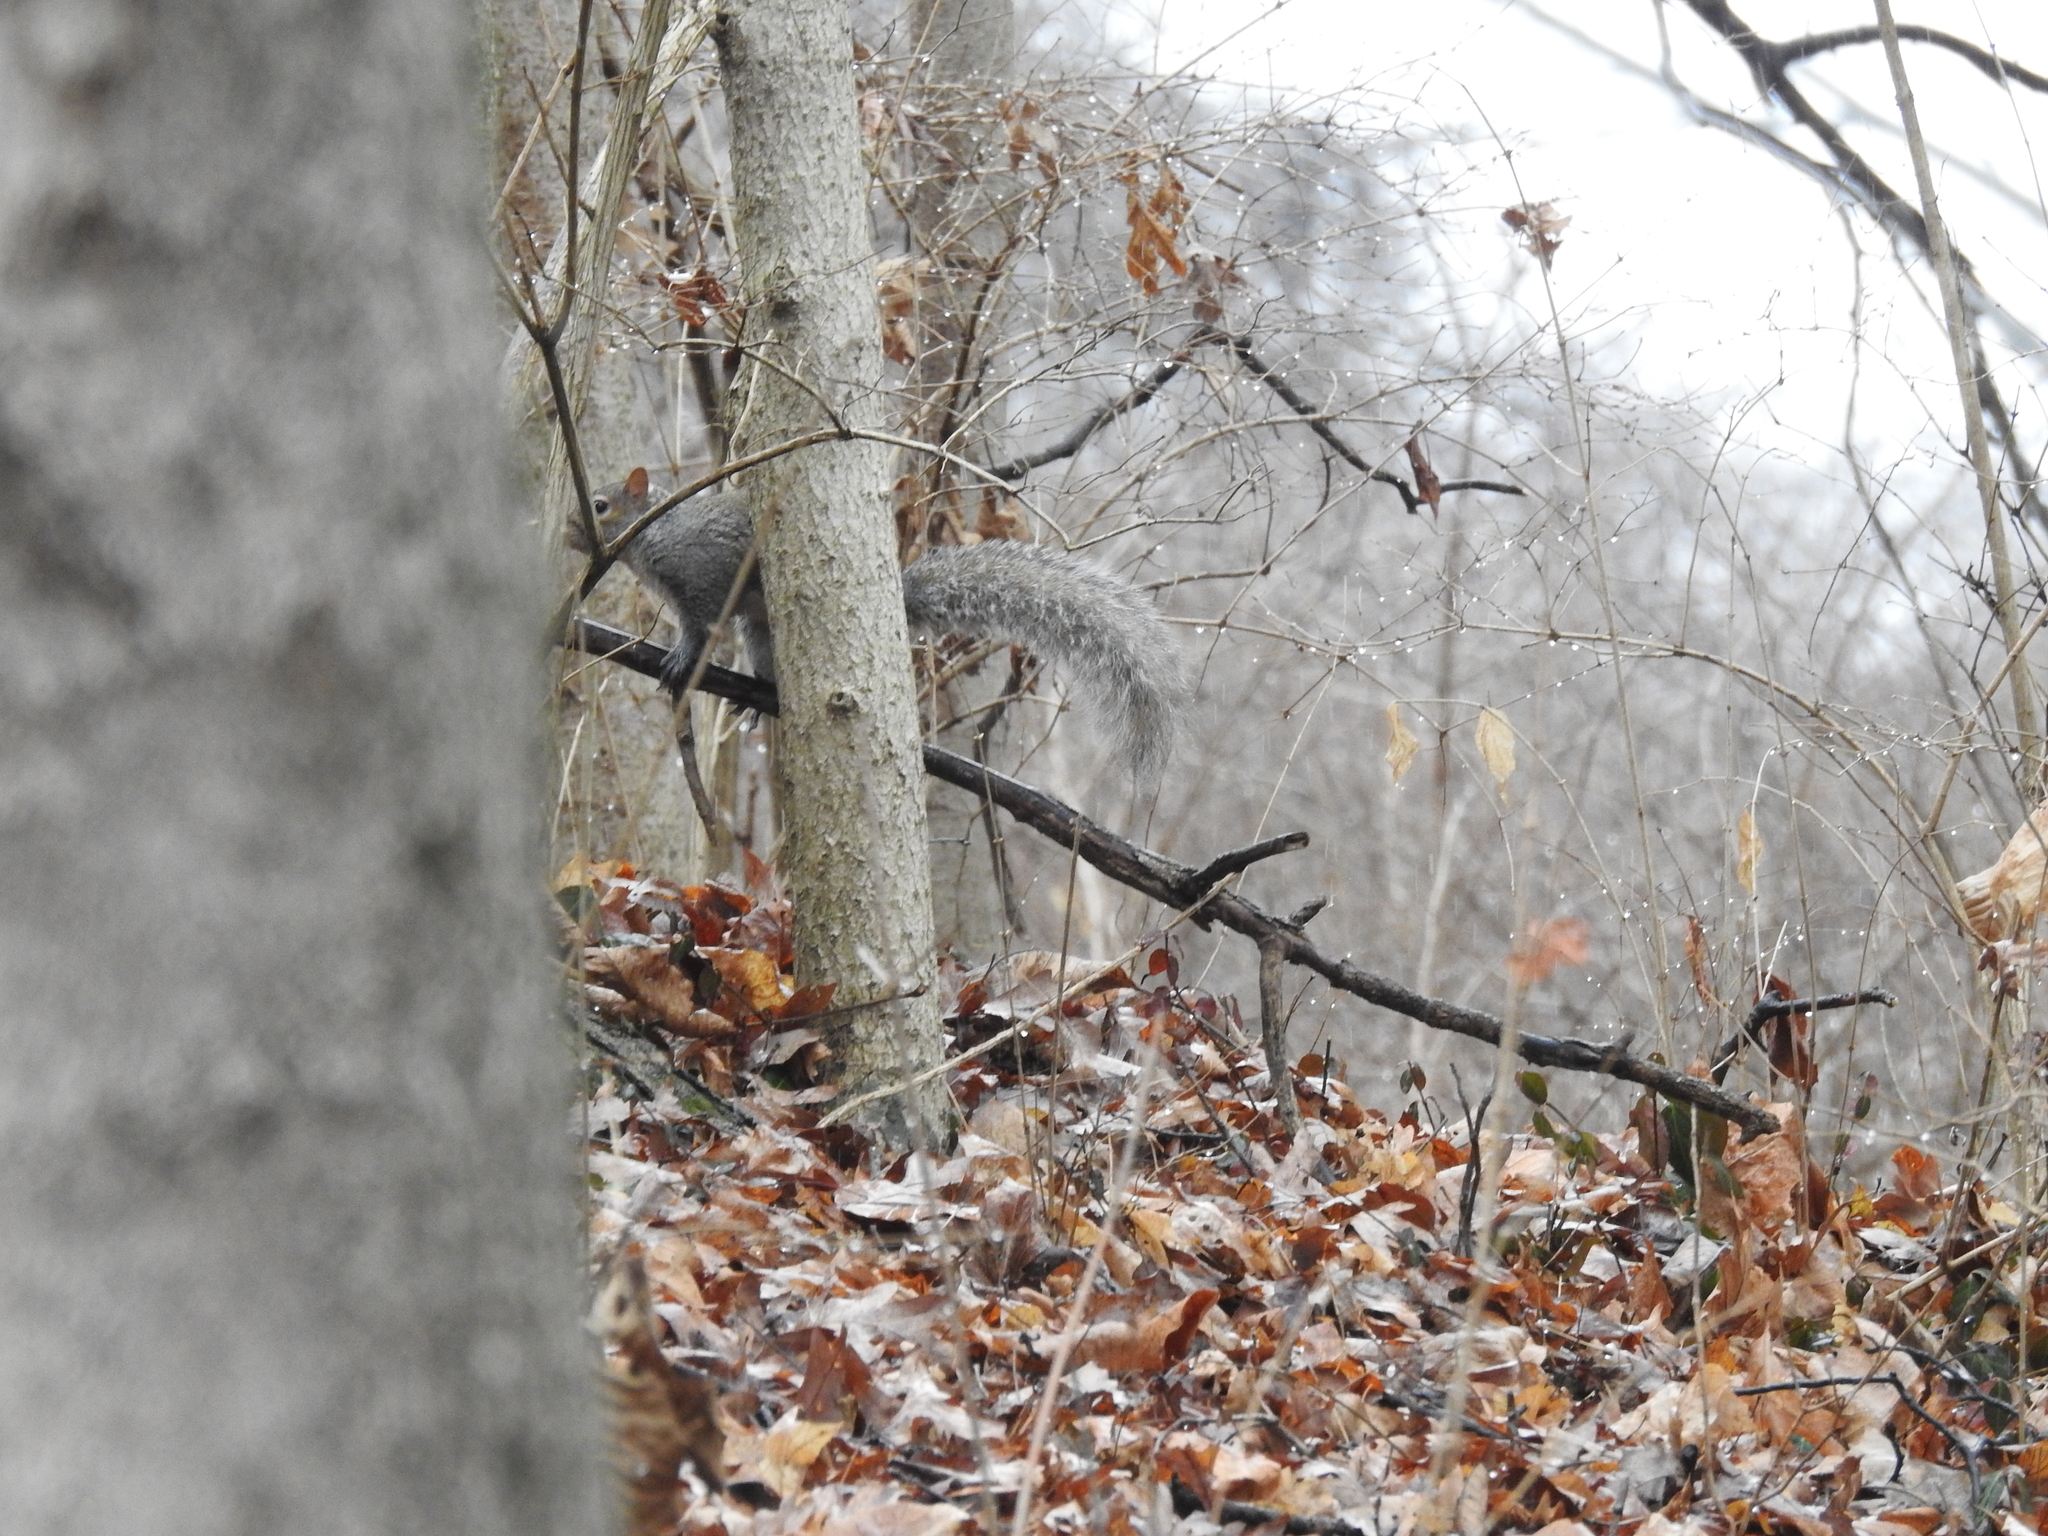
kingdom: Animalia
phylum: Chordata
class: Mammalia
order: Rodentia
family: Sciuridae
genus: Sciurus
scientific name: Sciurus carolinensis
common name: Eastern gray squirrel
